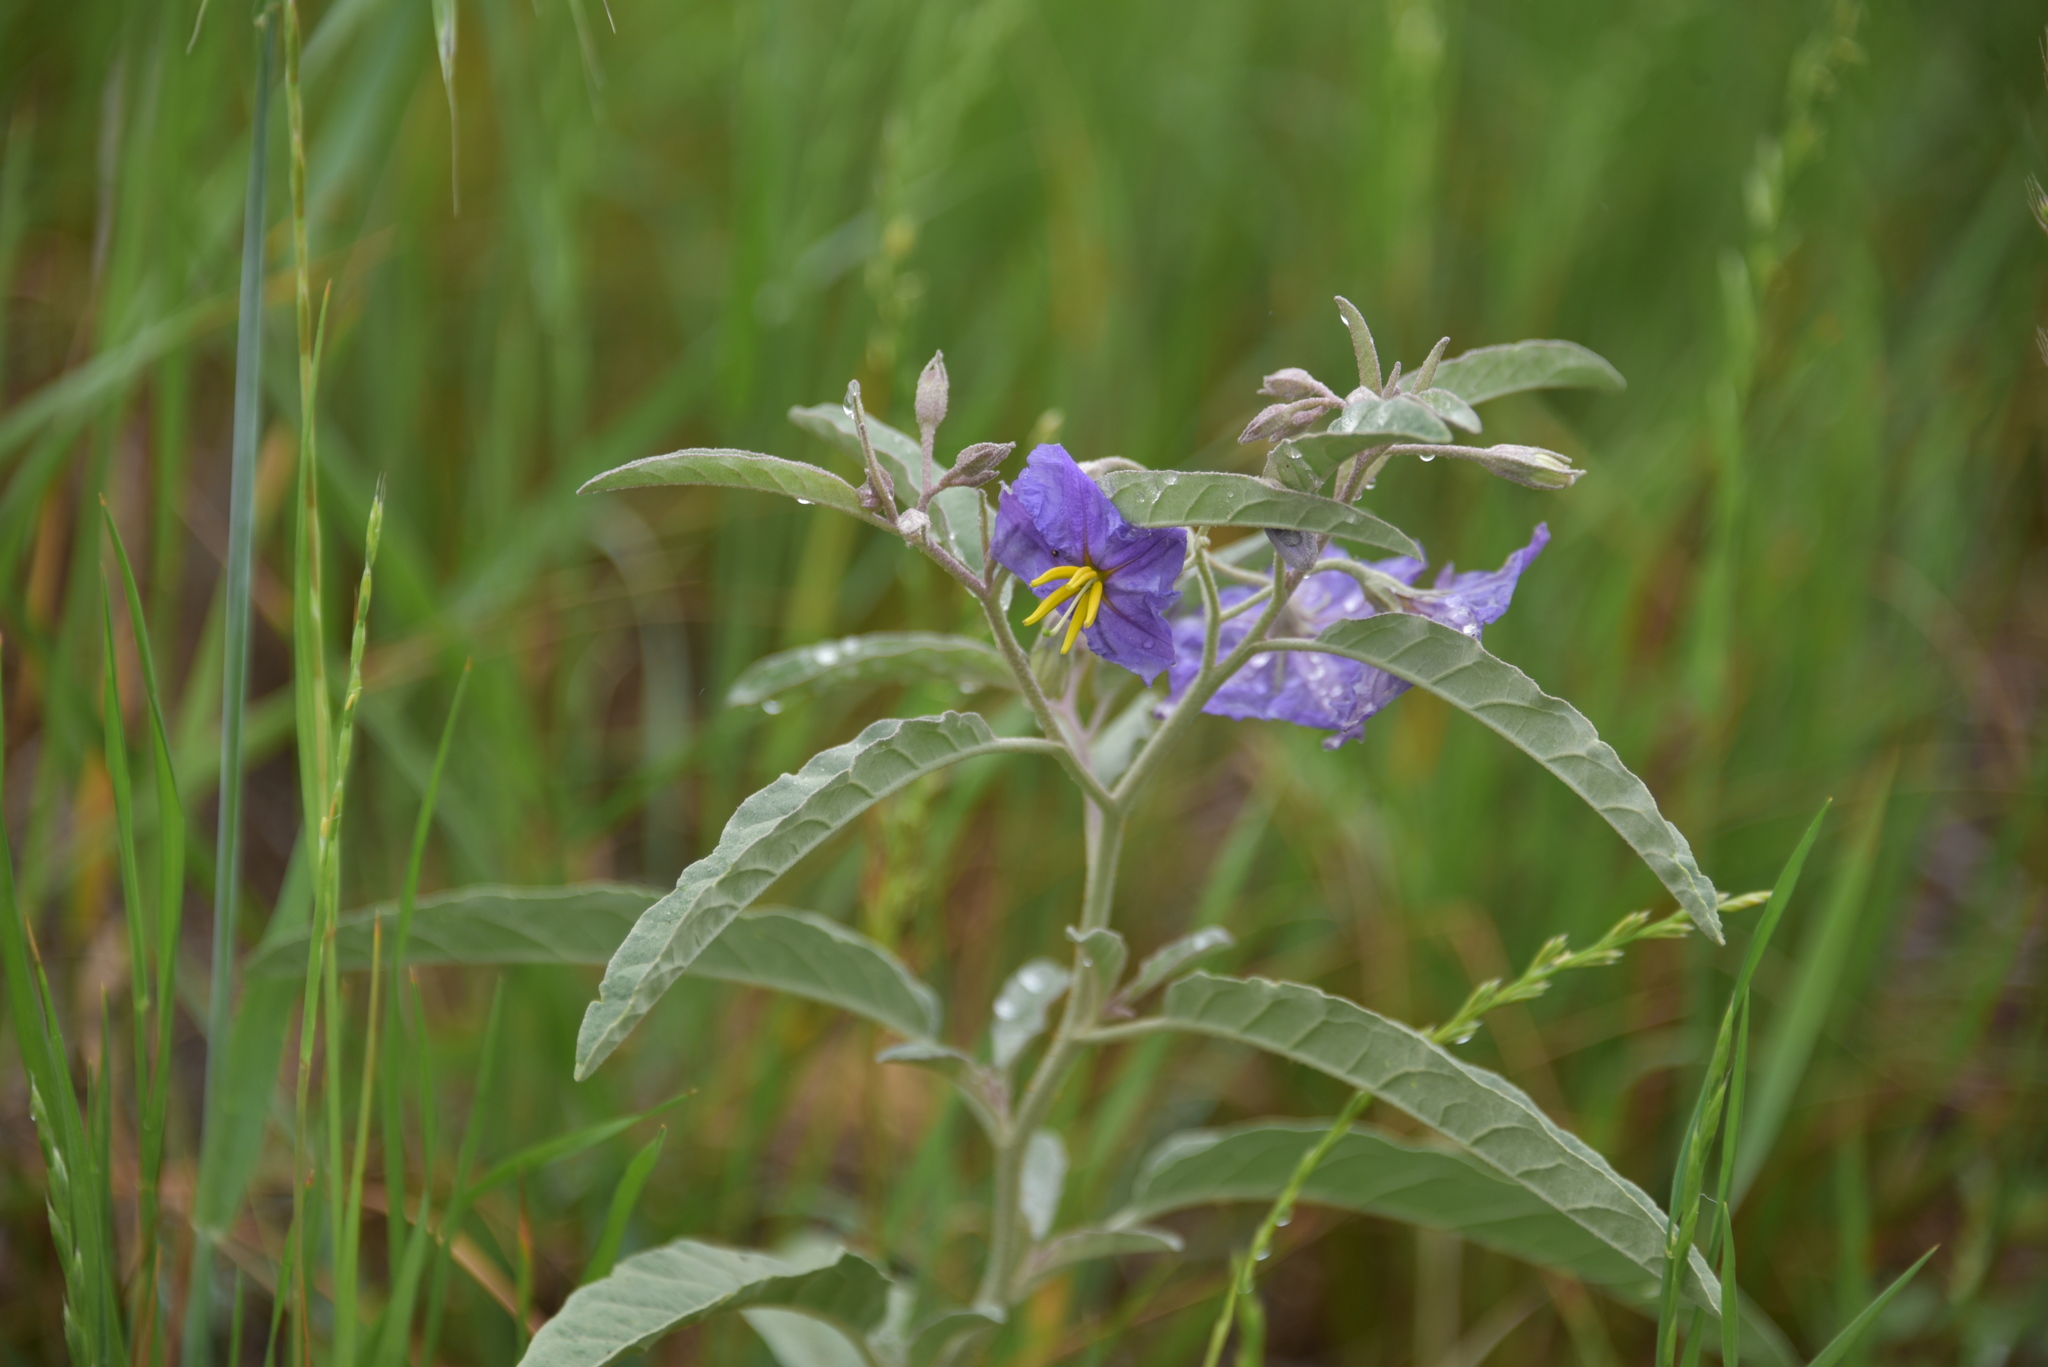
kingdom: Plantae
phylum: Tracheophyta
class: Magnoliopsida
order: Solanales
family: Solanaceae
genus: Solanum
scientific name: Solanum elaeagnifolium
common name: Silverleaf nightshade
